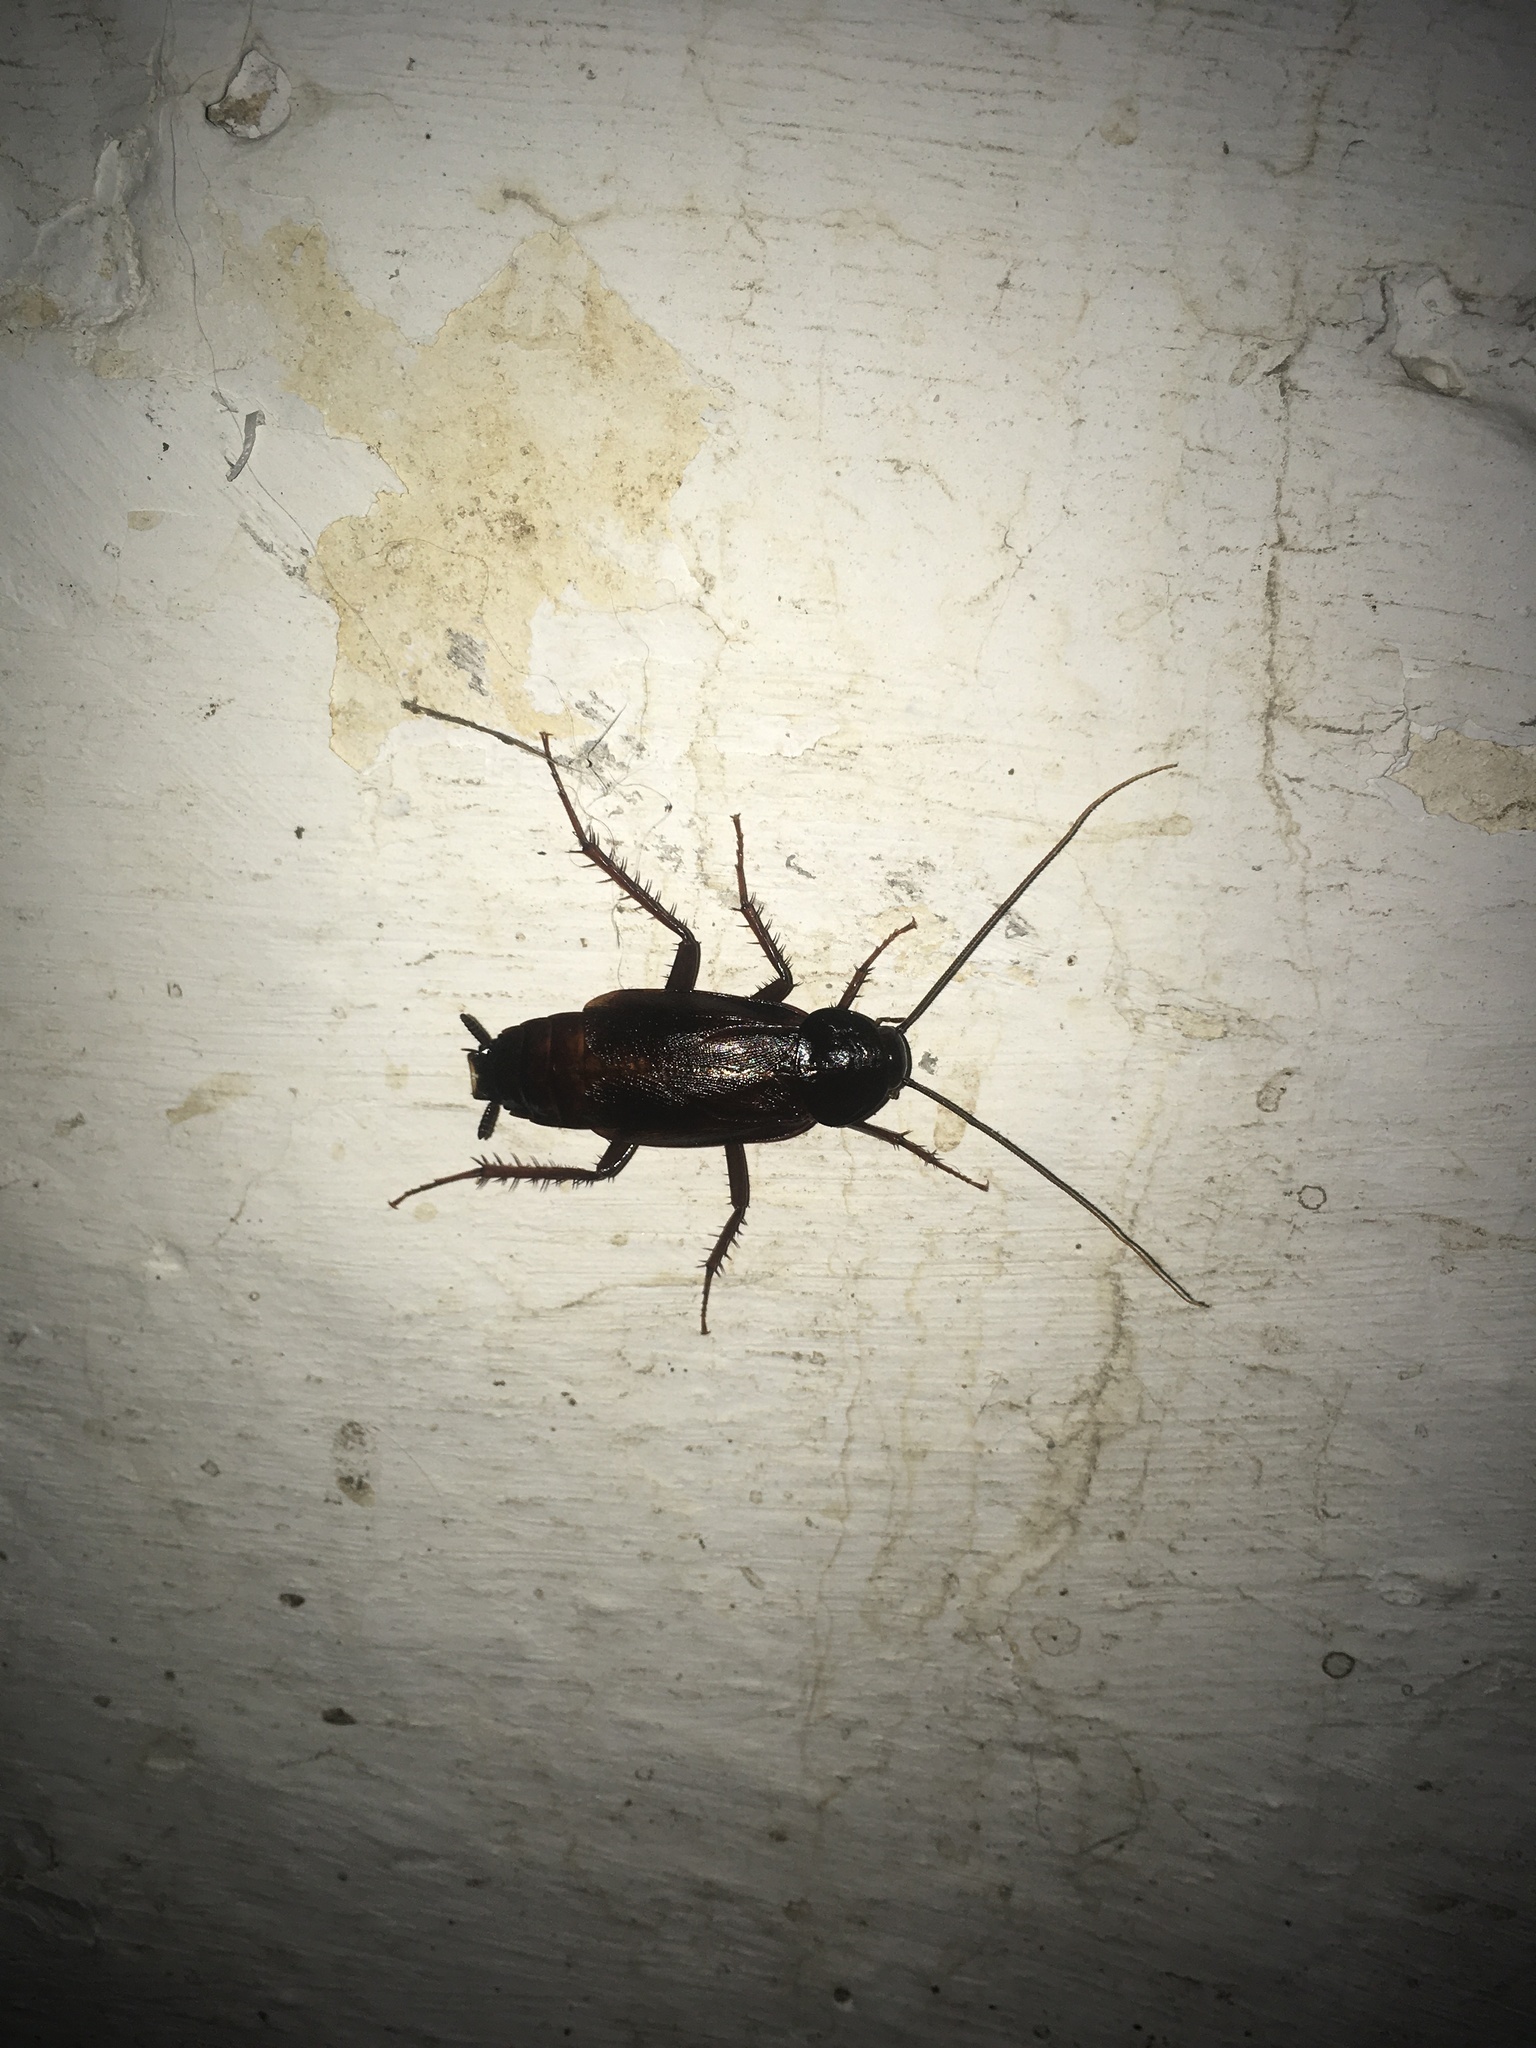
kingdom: Animalia
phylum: Arthropoda
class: Insecta
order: Blattodea
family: Blattidae
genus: Blatta
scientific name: Blatta orientalis
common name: Oriental cockroach
